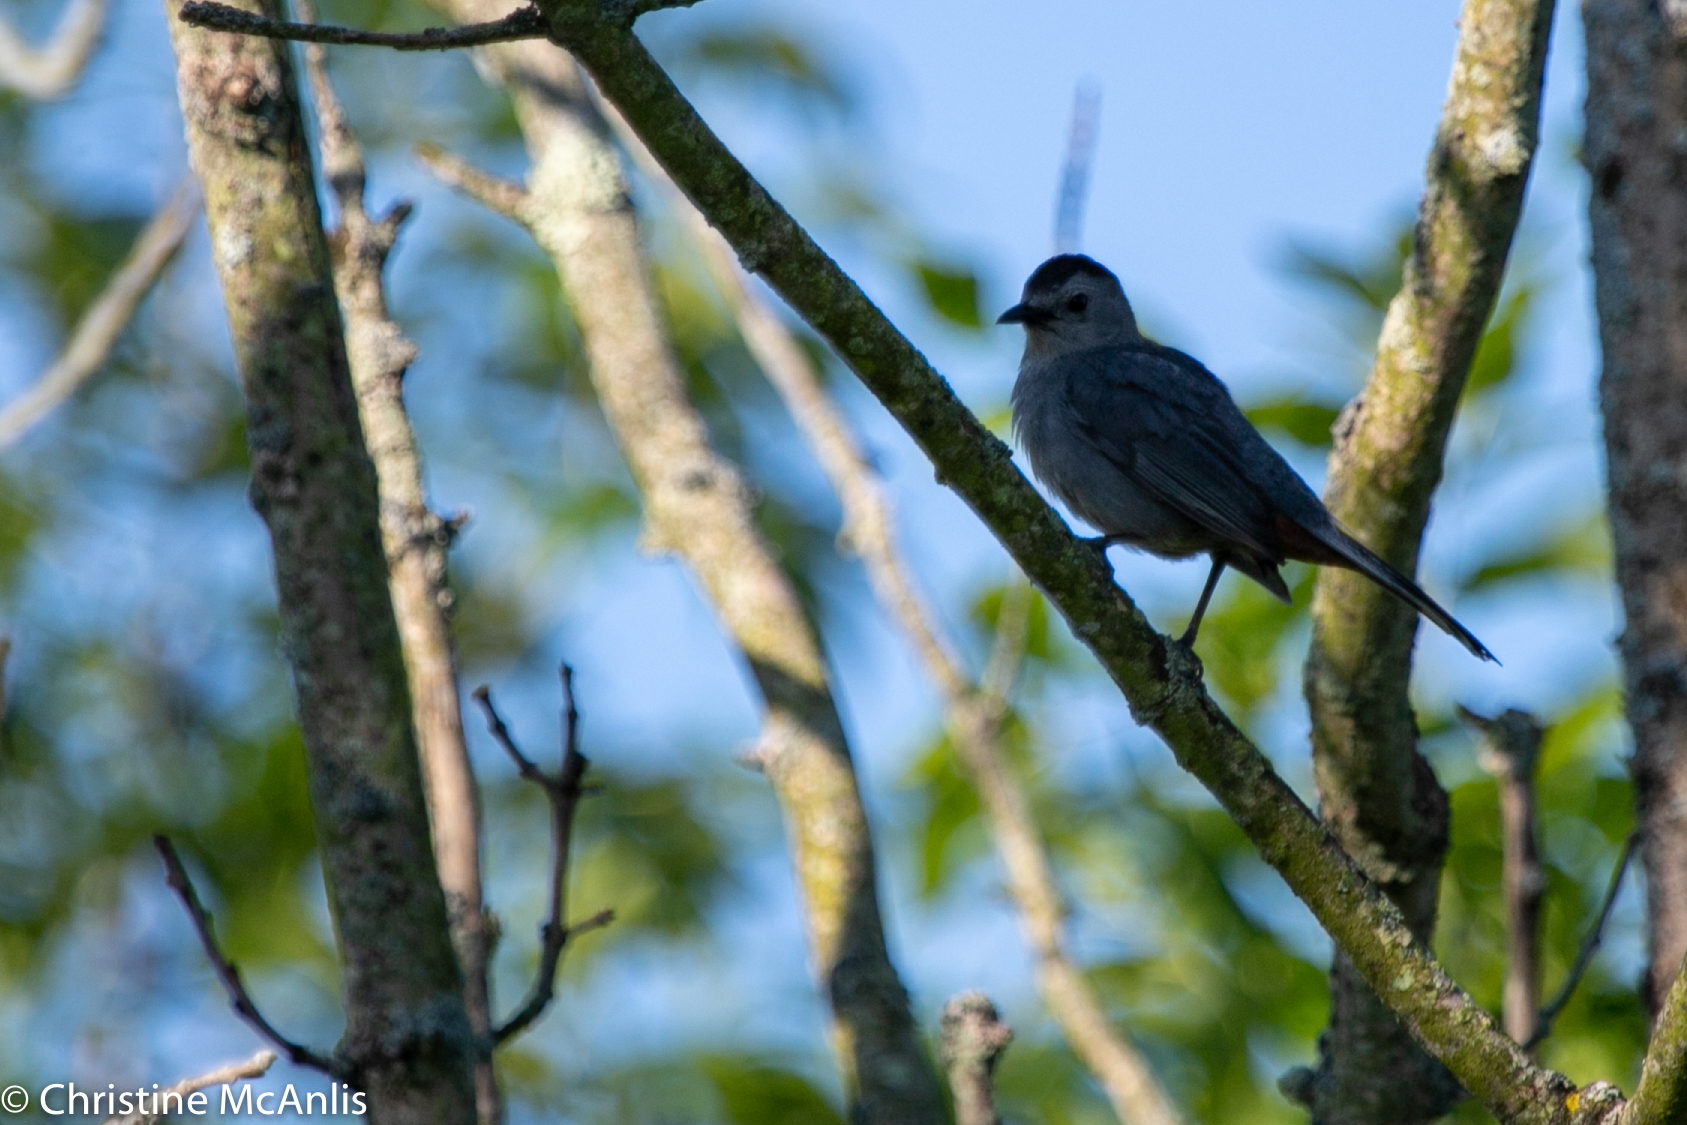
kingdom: Animalia
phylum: Chordata
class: Aves
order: Passeriformes
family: Mimidae
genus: Dumetella
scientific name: Dumetella carolinensis
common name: Gray catbird
